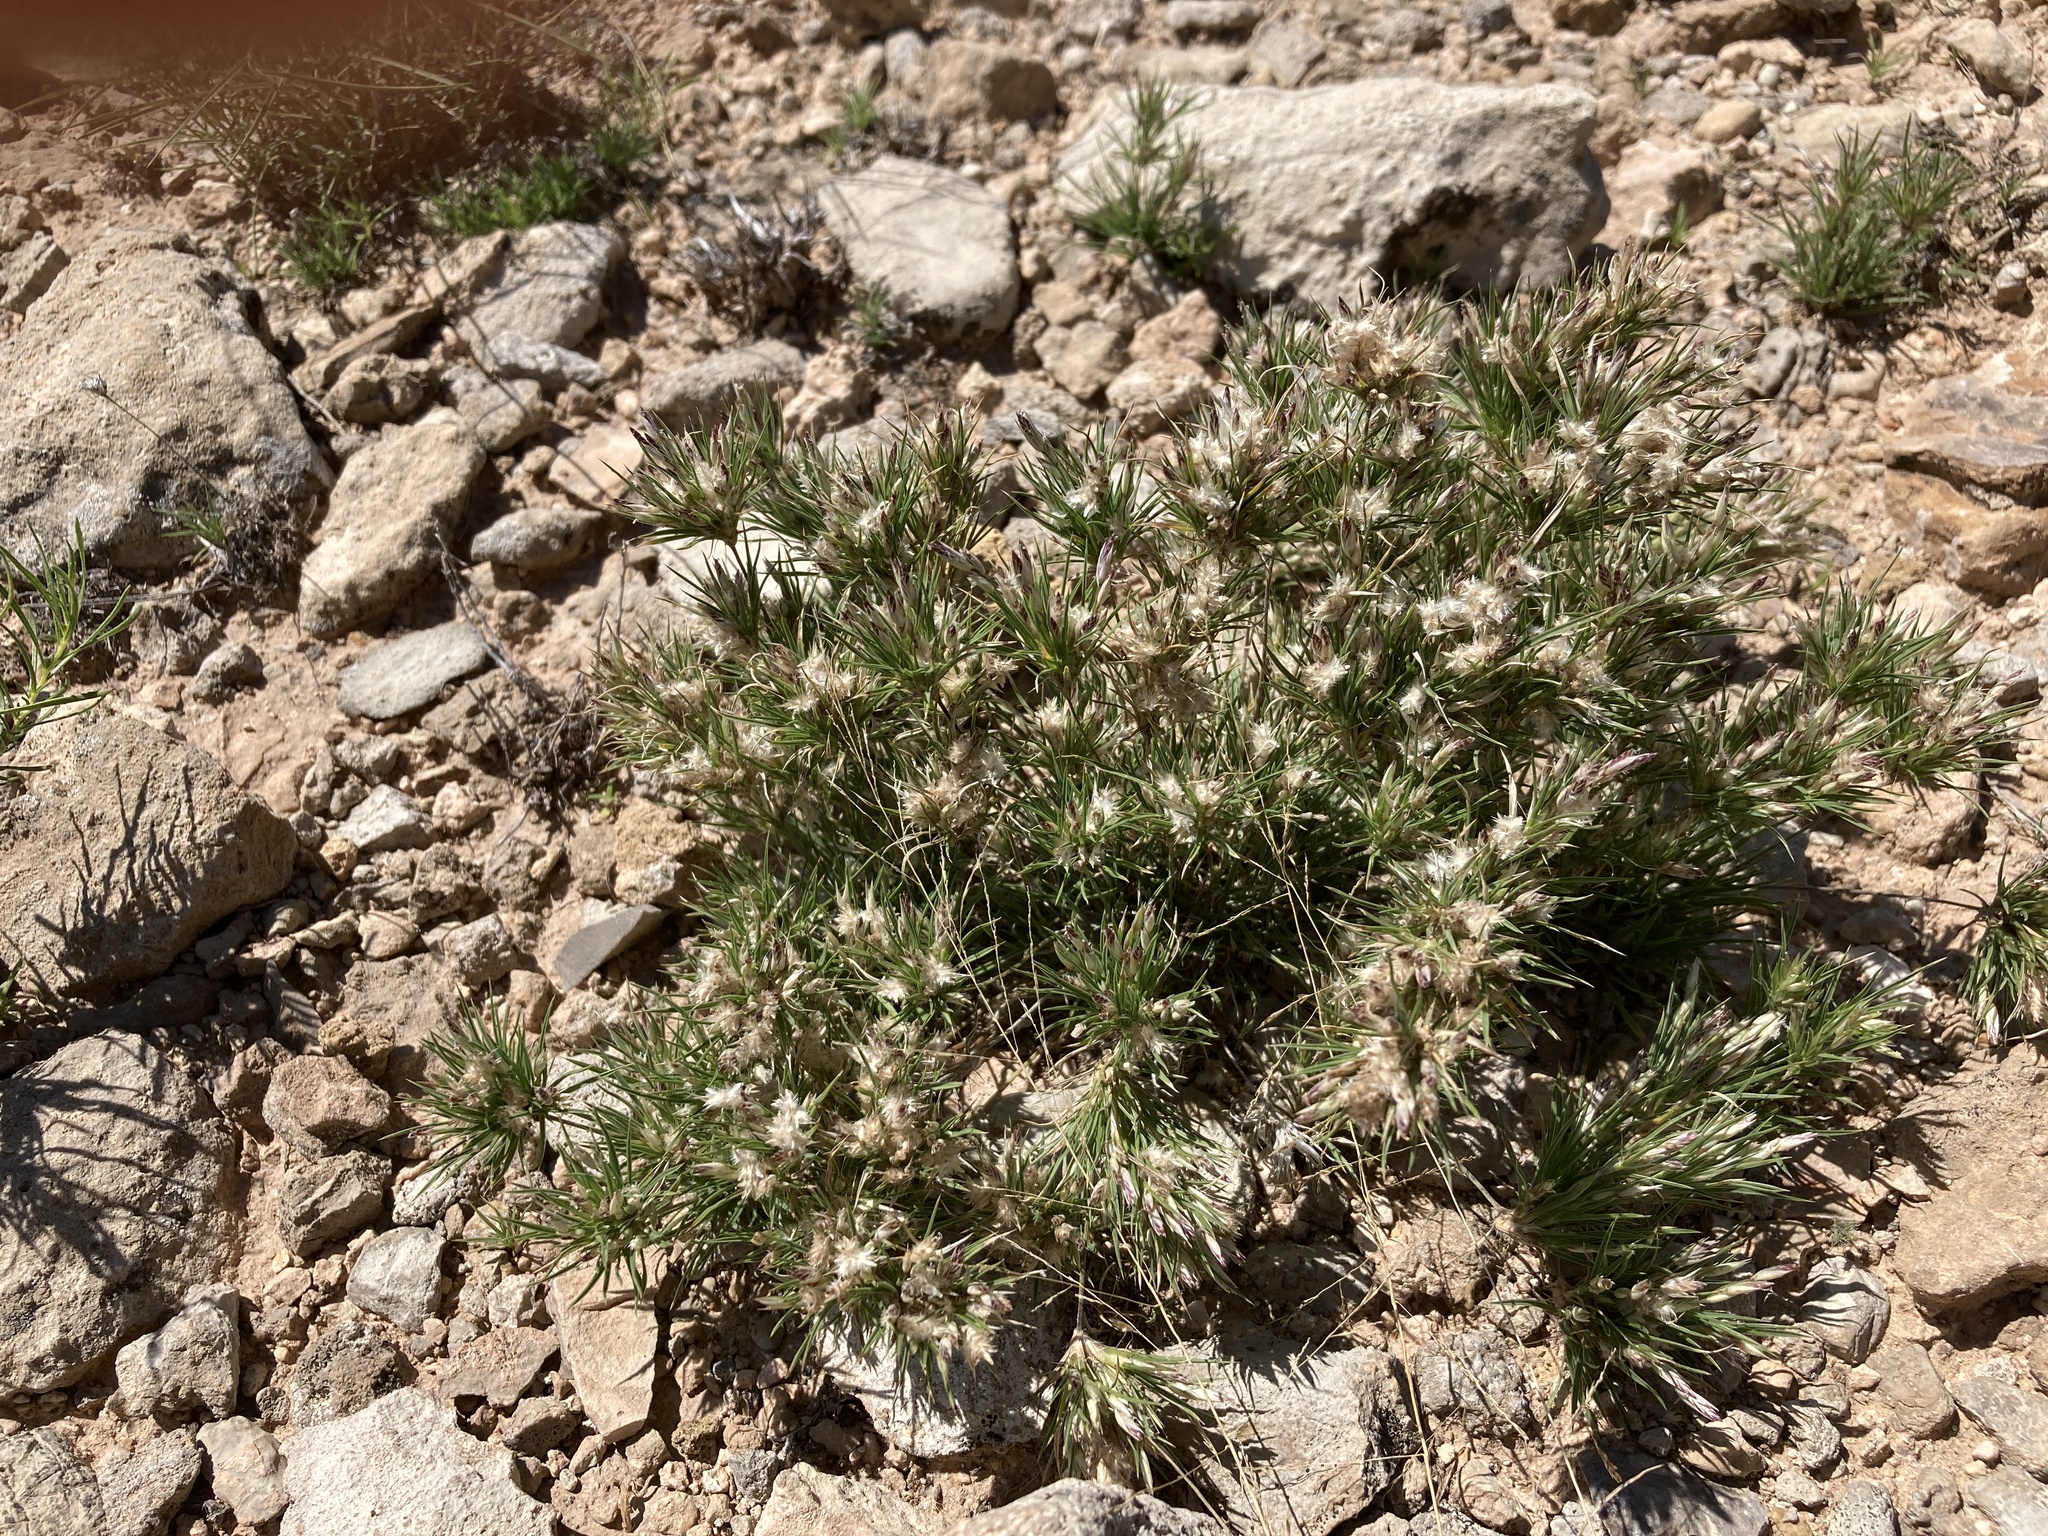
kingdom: Plantae
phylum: Tracheophyta
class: Liliopsida
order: Poales
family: Poaceae
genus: Dasyochloa
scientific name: Dasyochloa pulchella
